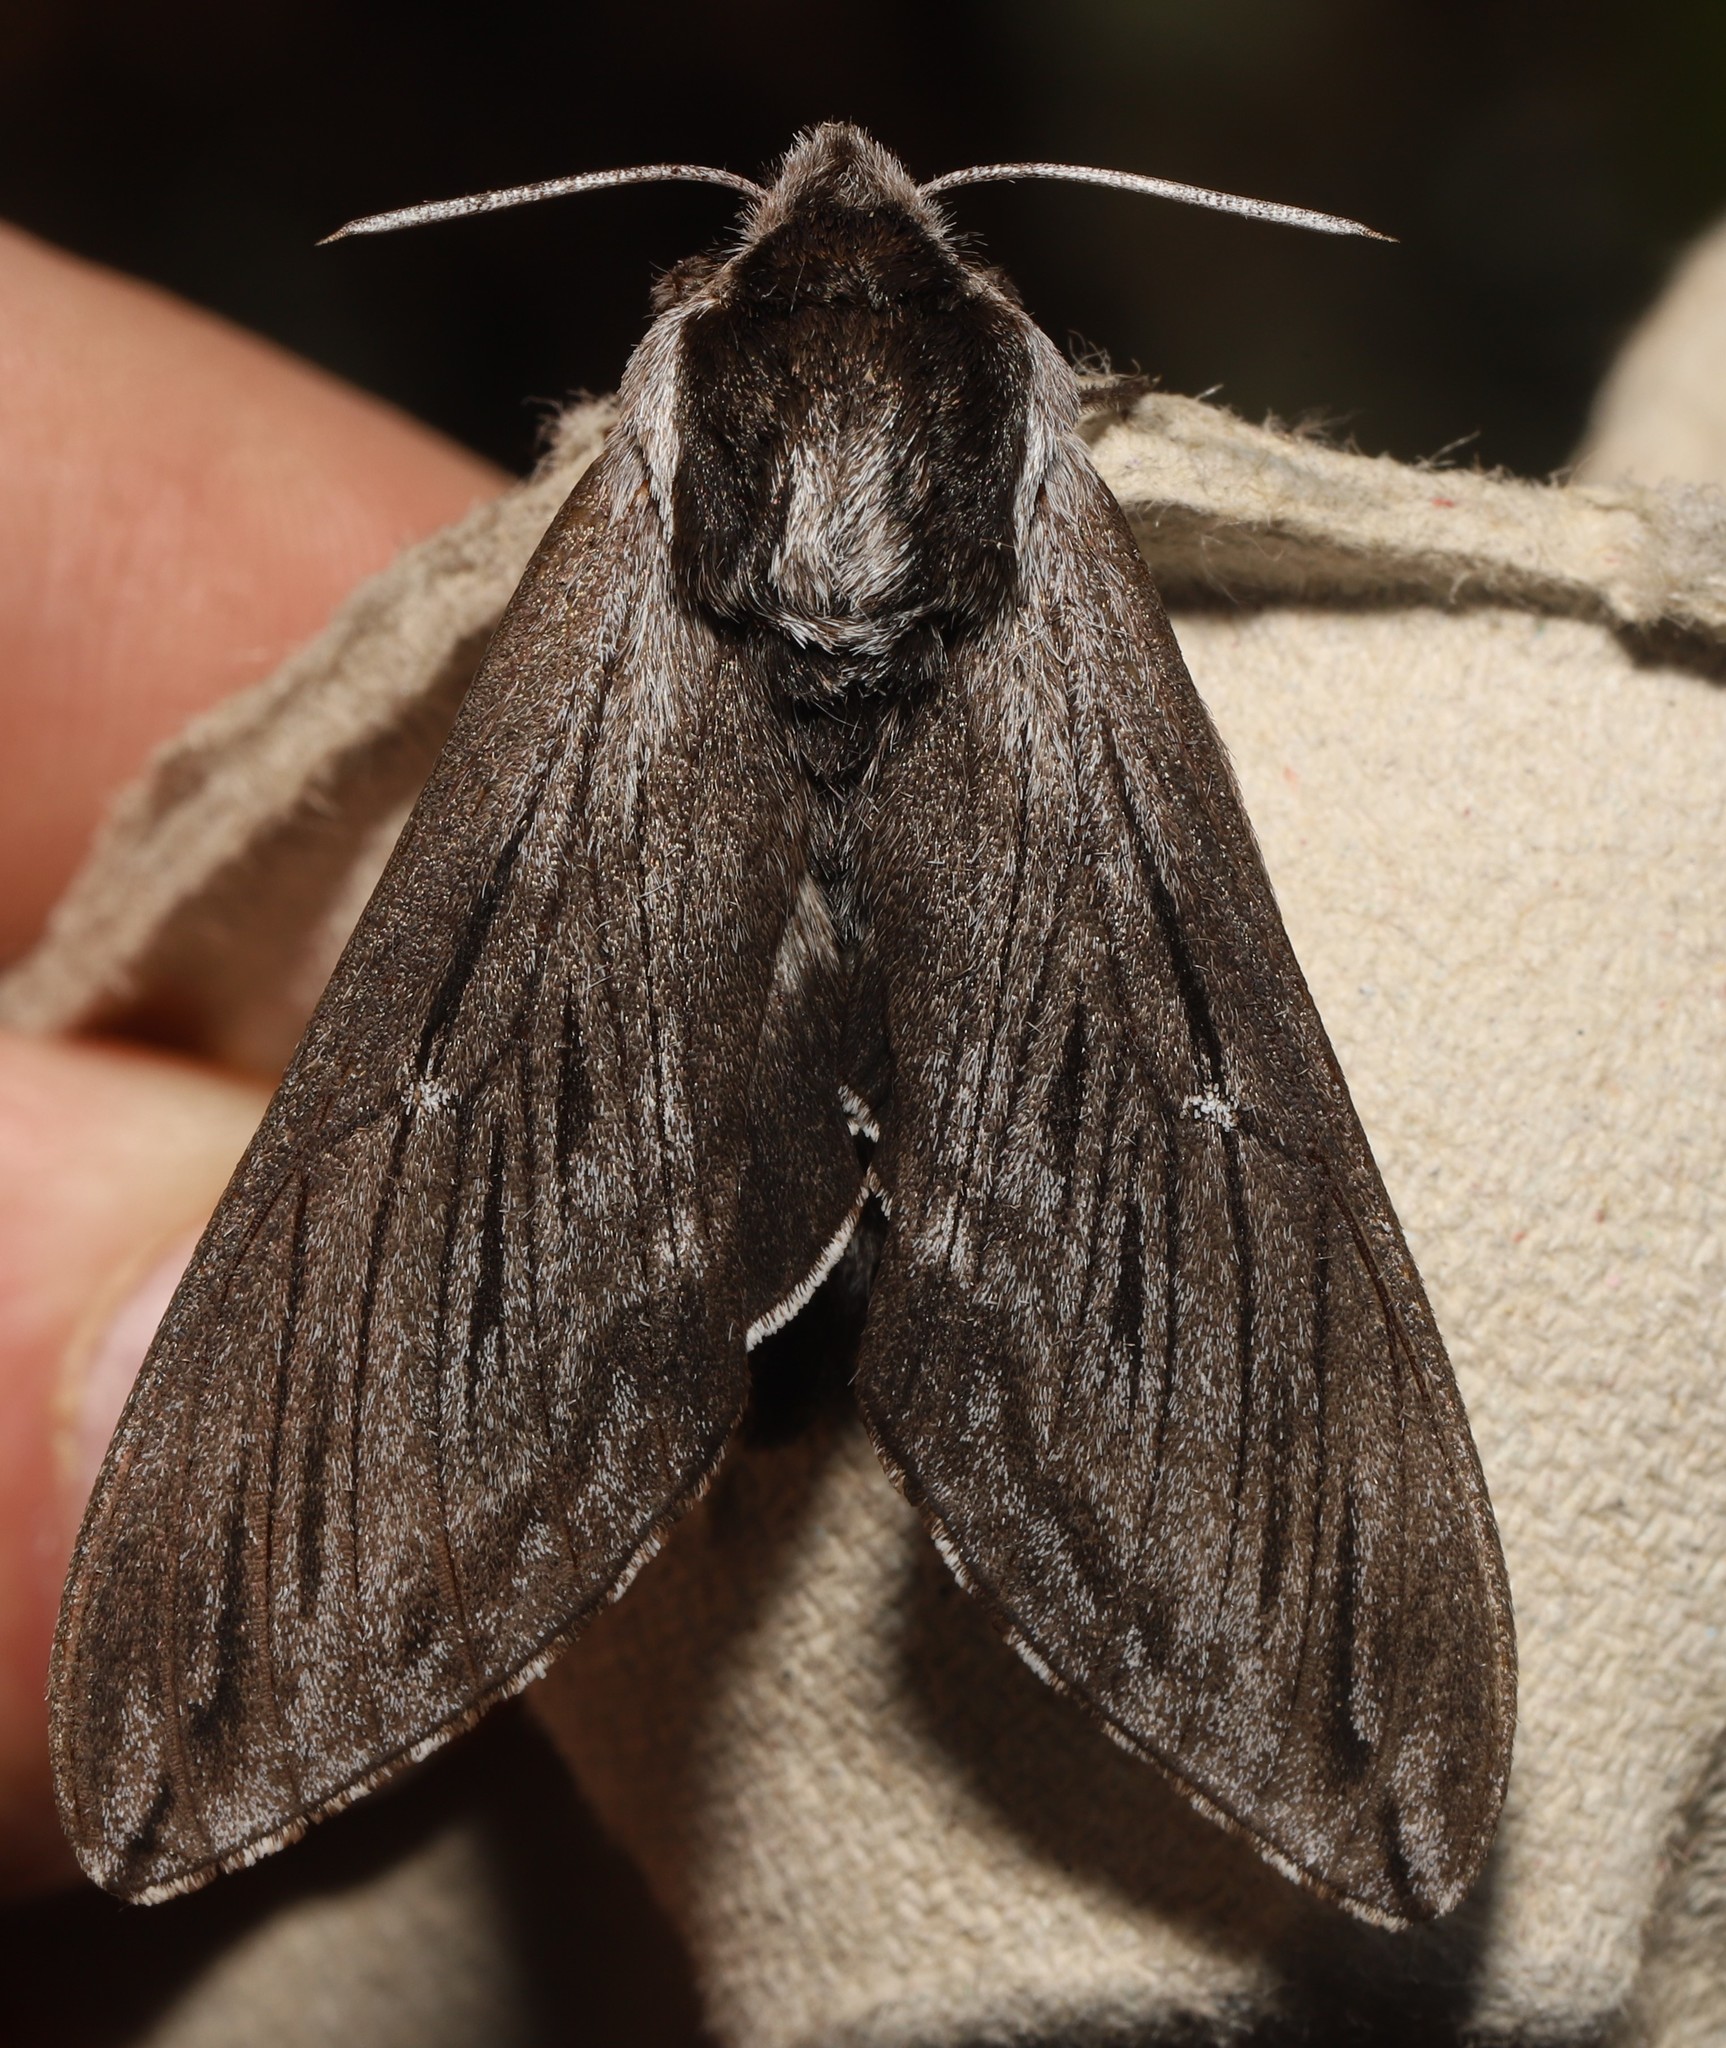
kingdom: Animalia
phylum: Arthropoda
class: Insecta
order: Lepidoptera
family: Sphingidae
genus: Sphinx
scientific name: Sphinx poecila
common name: Northern apple sphinx
